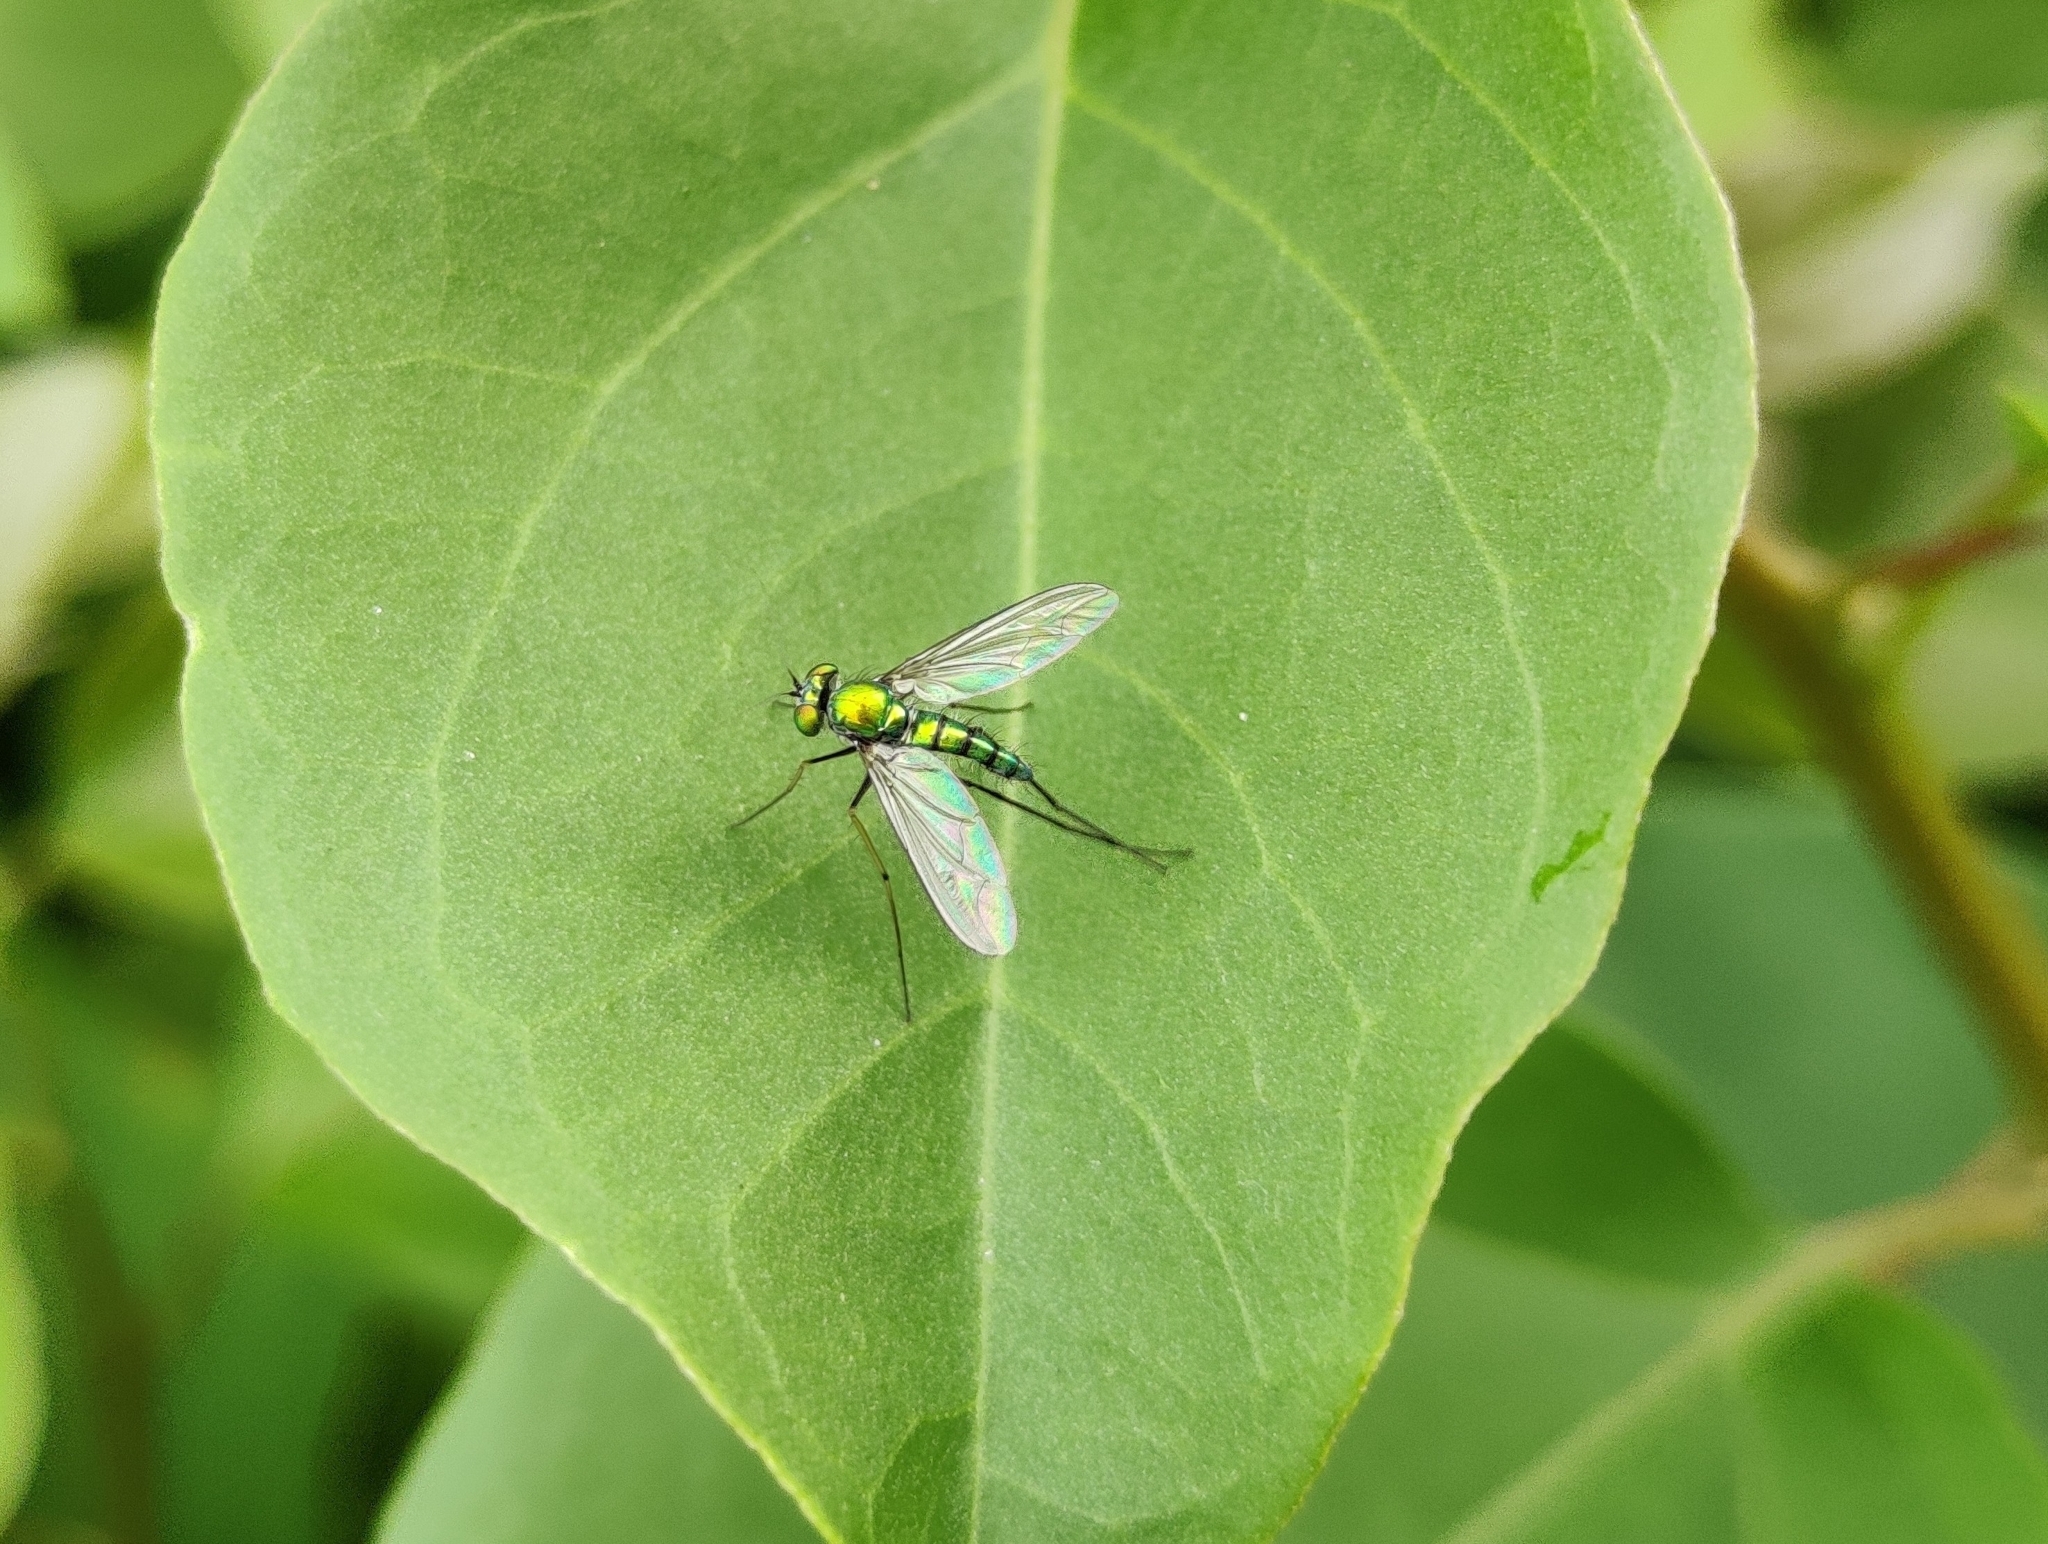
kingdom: Animalia
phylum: Arthropoda
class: Insecta
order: Diptera
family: Dolichopodidae
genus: Chrysosoma
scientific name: Chrysosoma globifer
